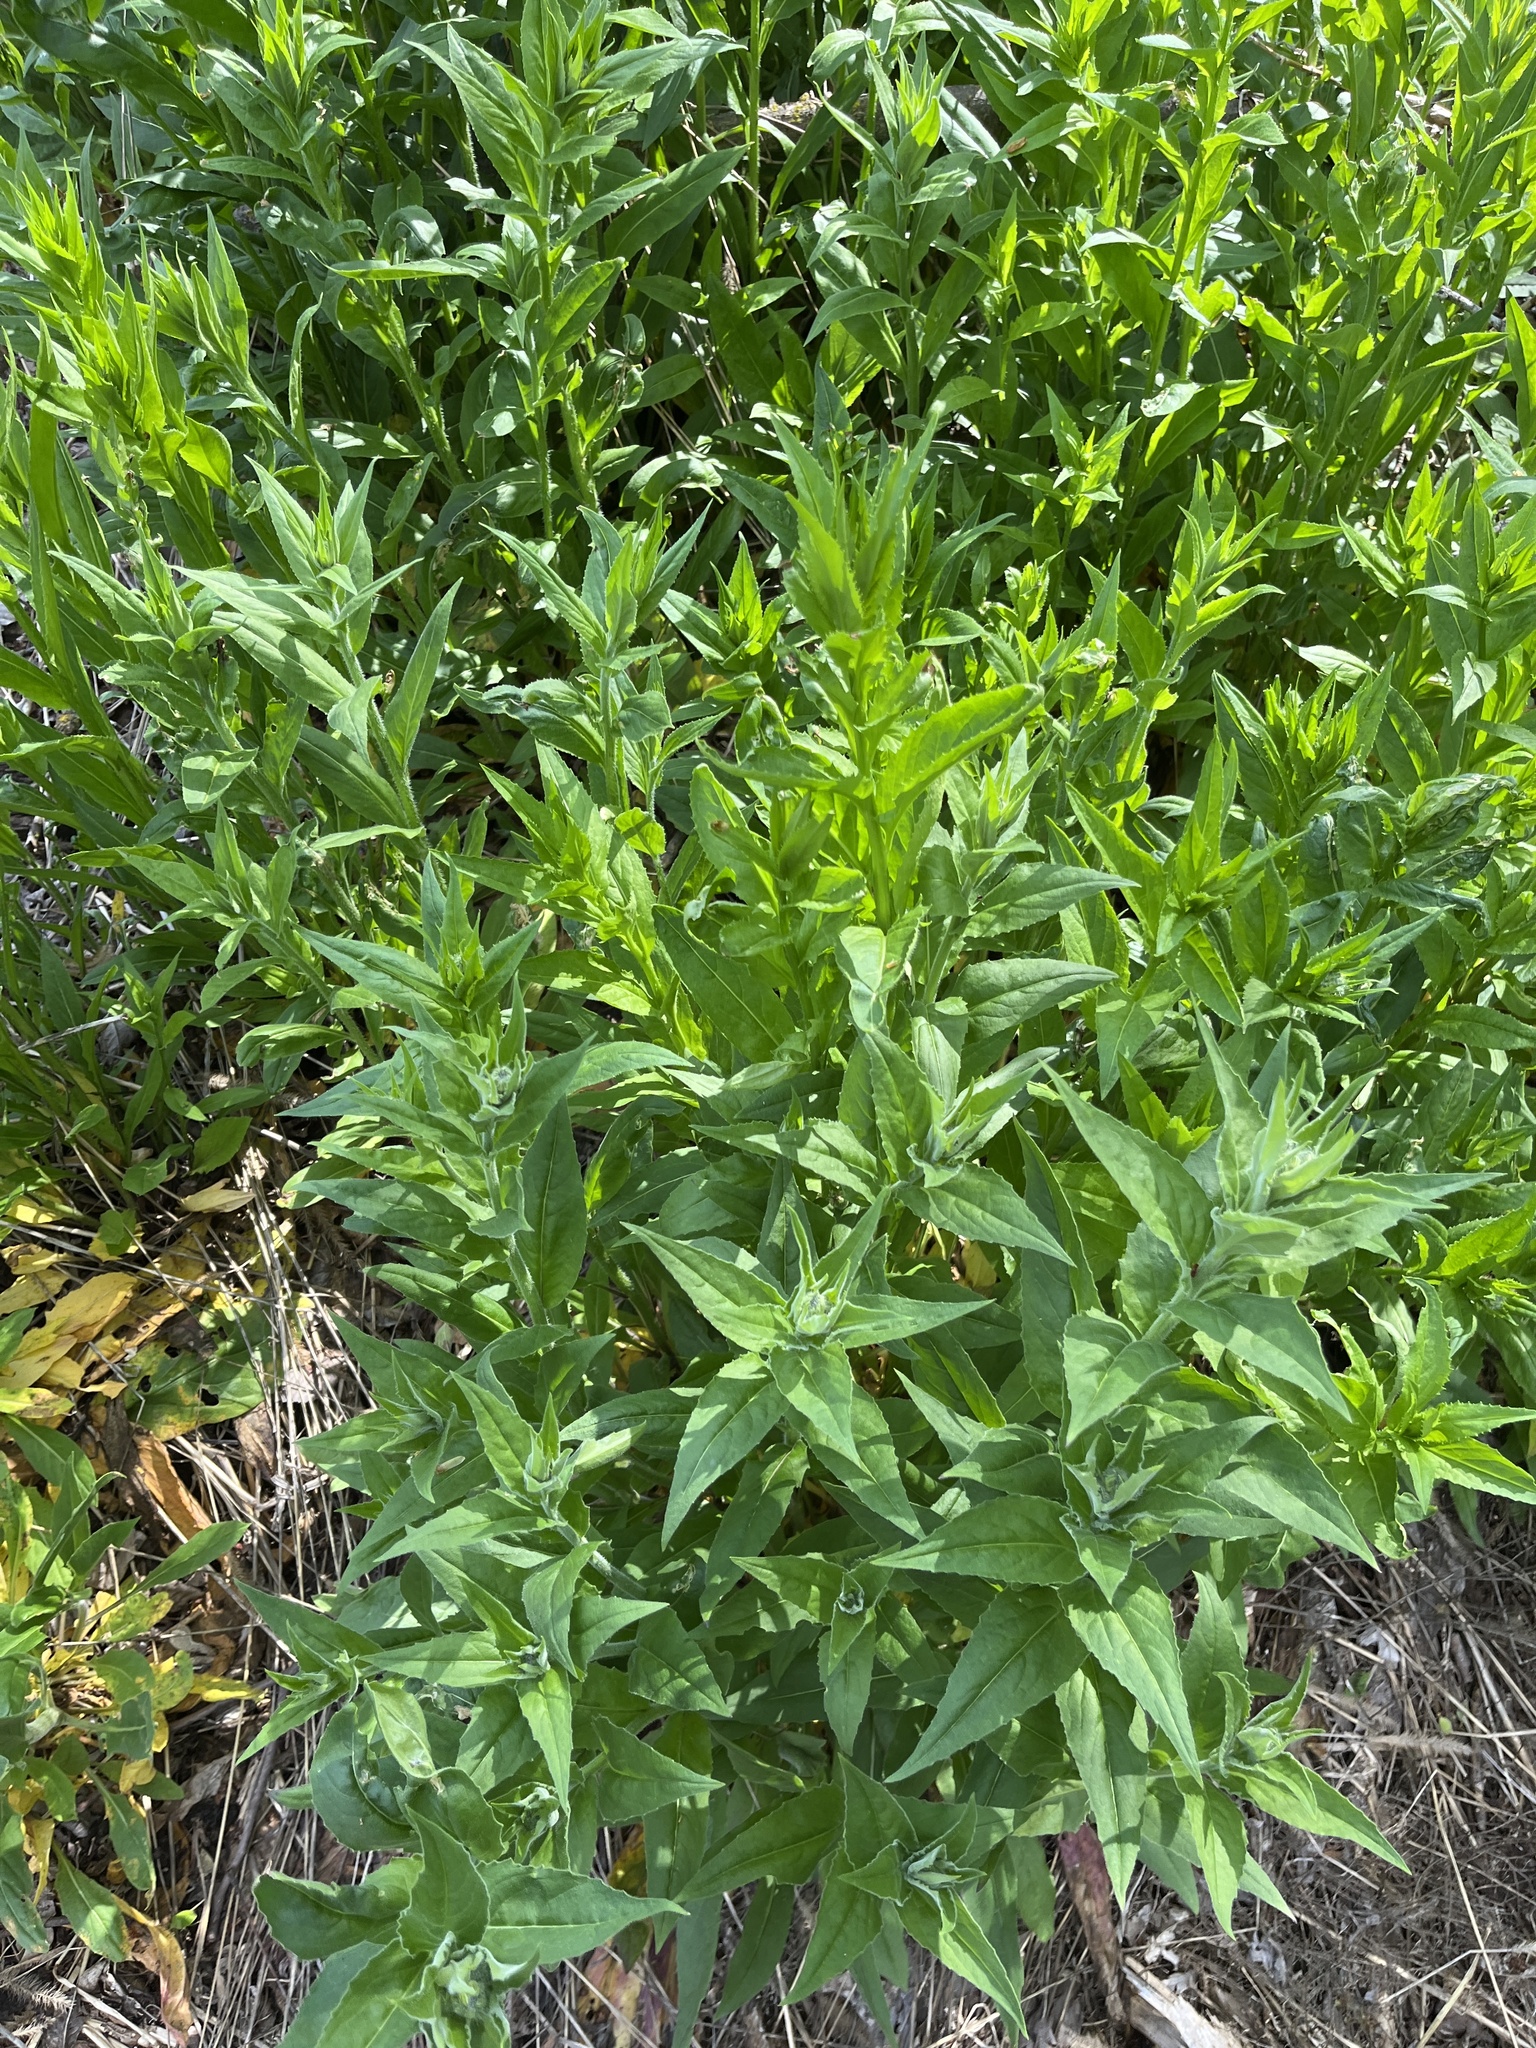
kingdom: Plantae
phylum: Tracheophyta
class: Magnoliopsida
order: Brassicales
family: Brassicaceae
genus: Hesperis
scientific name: Hesperis matronalis
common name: Dame's-violet
